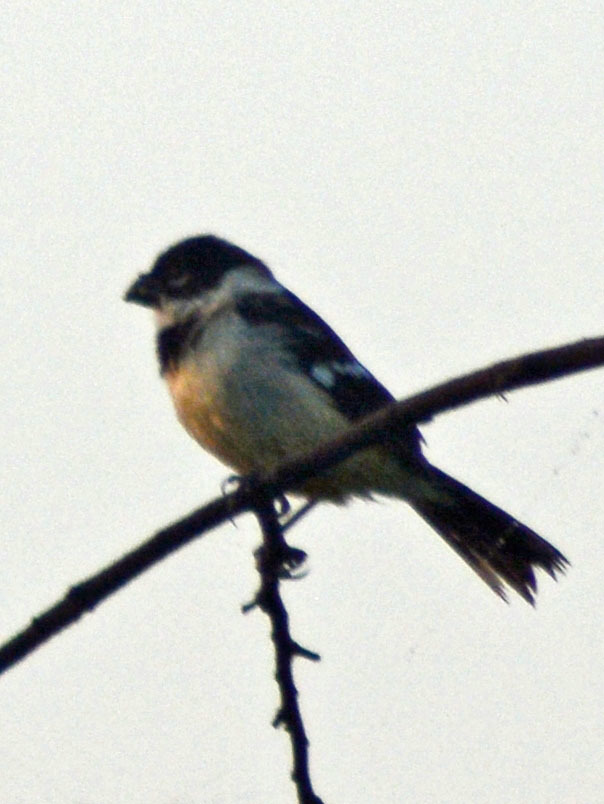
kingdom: Animalia
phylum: Chordata
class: Aves
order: Passeriformes
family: Thraupidae
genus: Sporophila
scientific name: Sporophila morelleti
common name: Morelet's seedeater
